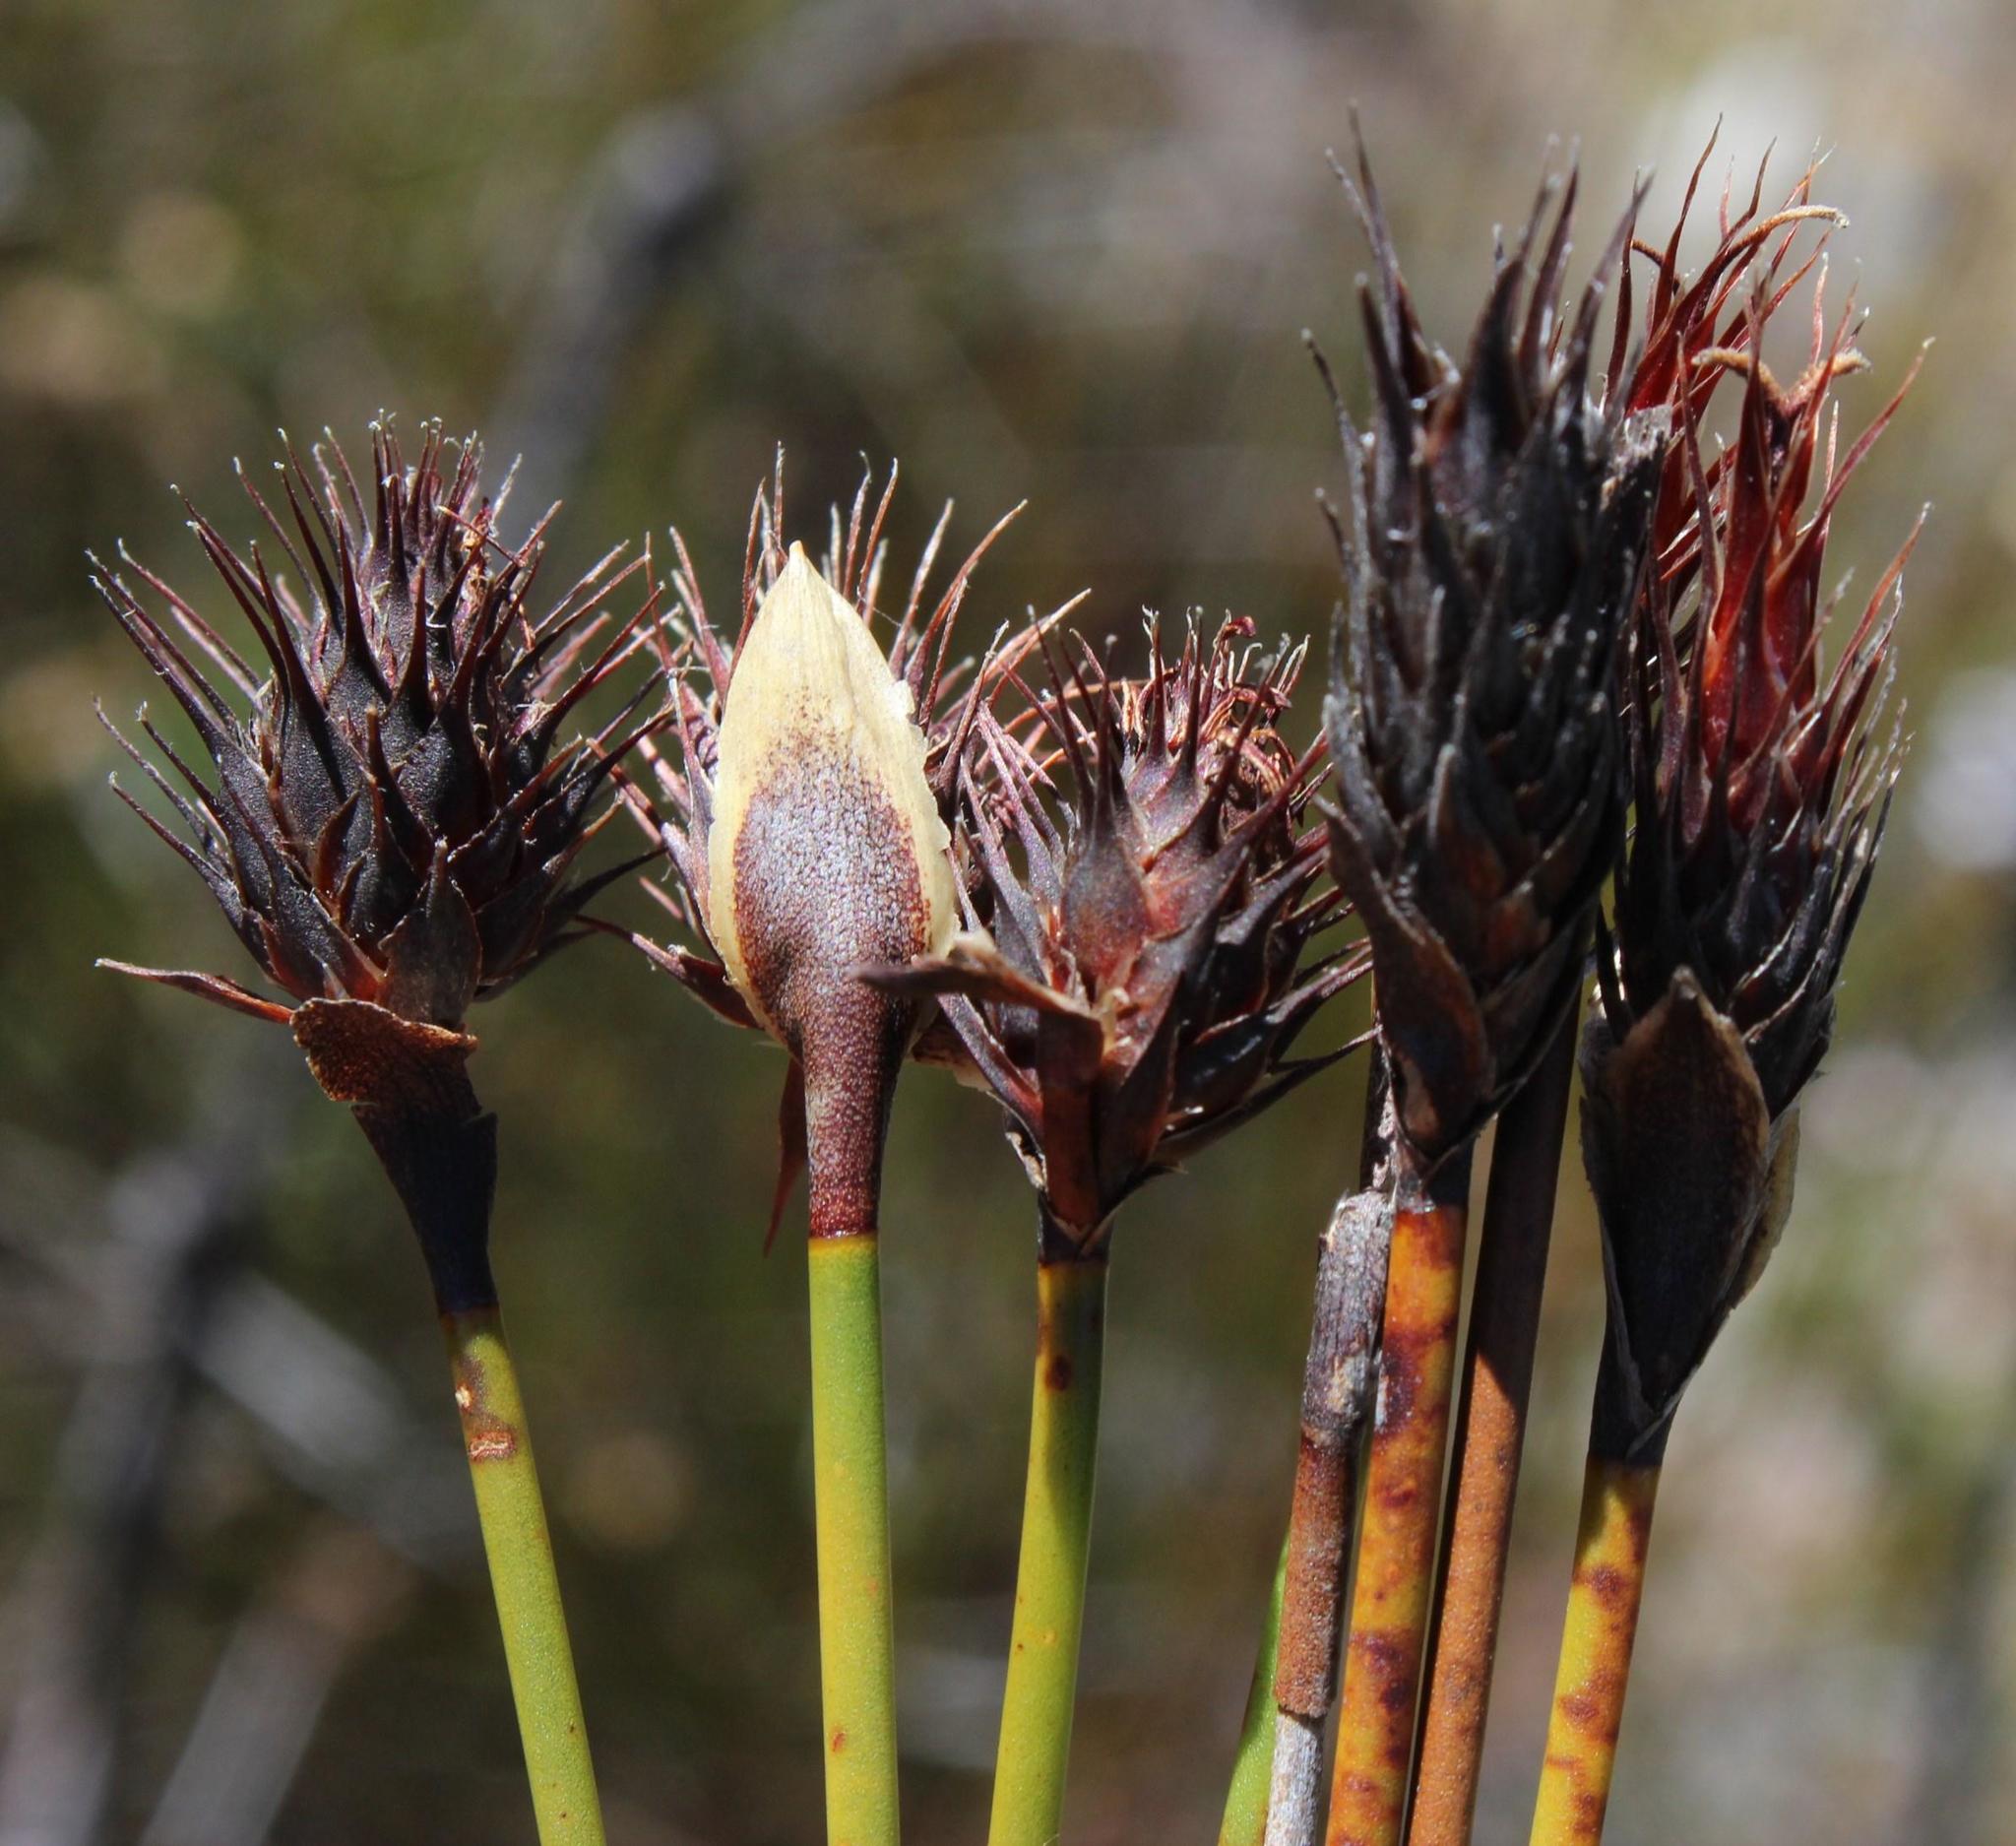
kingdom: Plantae
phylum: Tracheophyta
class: Liliopsida
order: Poales
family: Restionaceae
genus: Hypodiscus
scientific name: Hypodiscus aristatus
